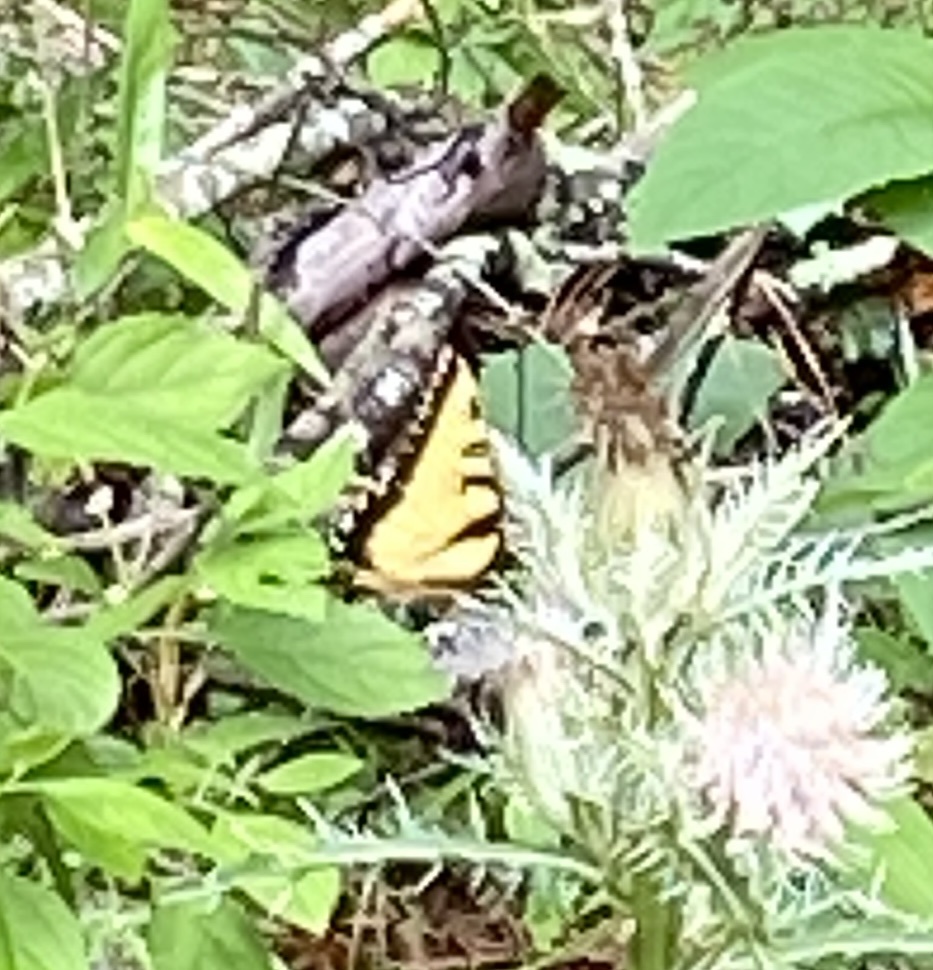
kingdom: Animalia
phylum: Arthropoda
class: Insecta
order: Lepidoptera
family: Papilionidae
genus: Papilio
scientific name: Papilio glaucus
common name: Tiger swallowtail
